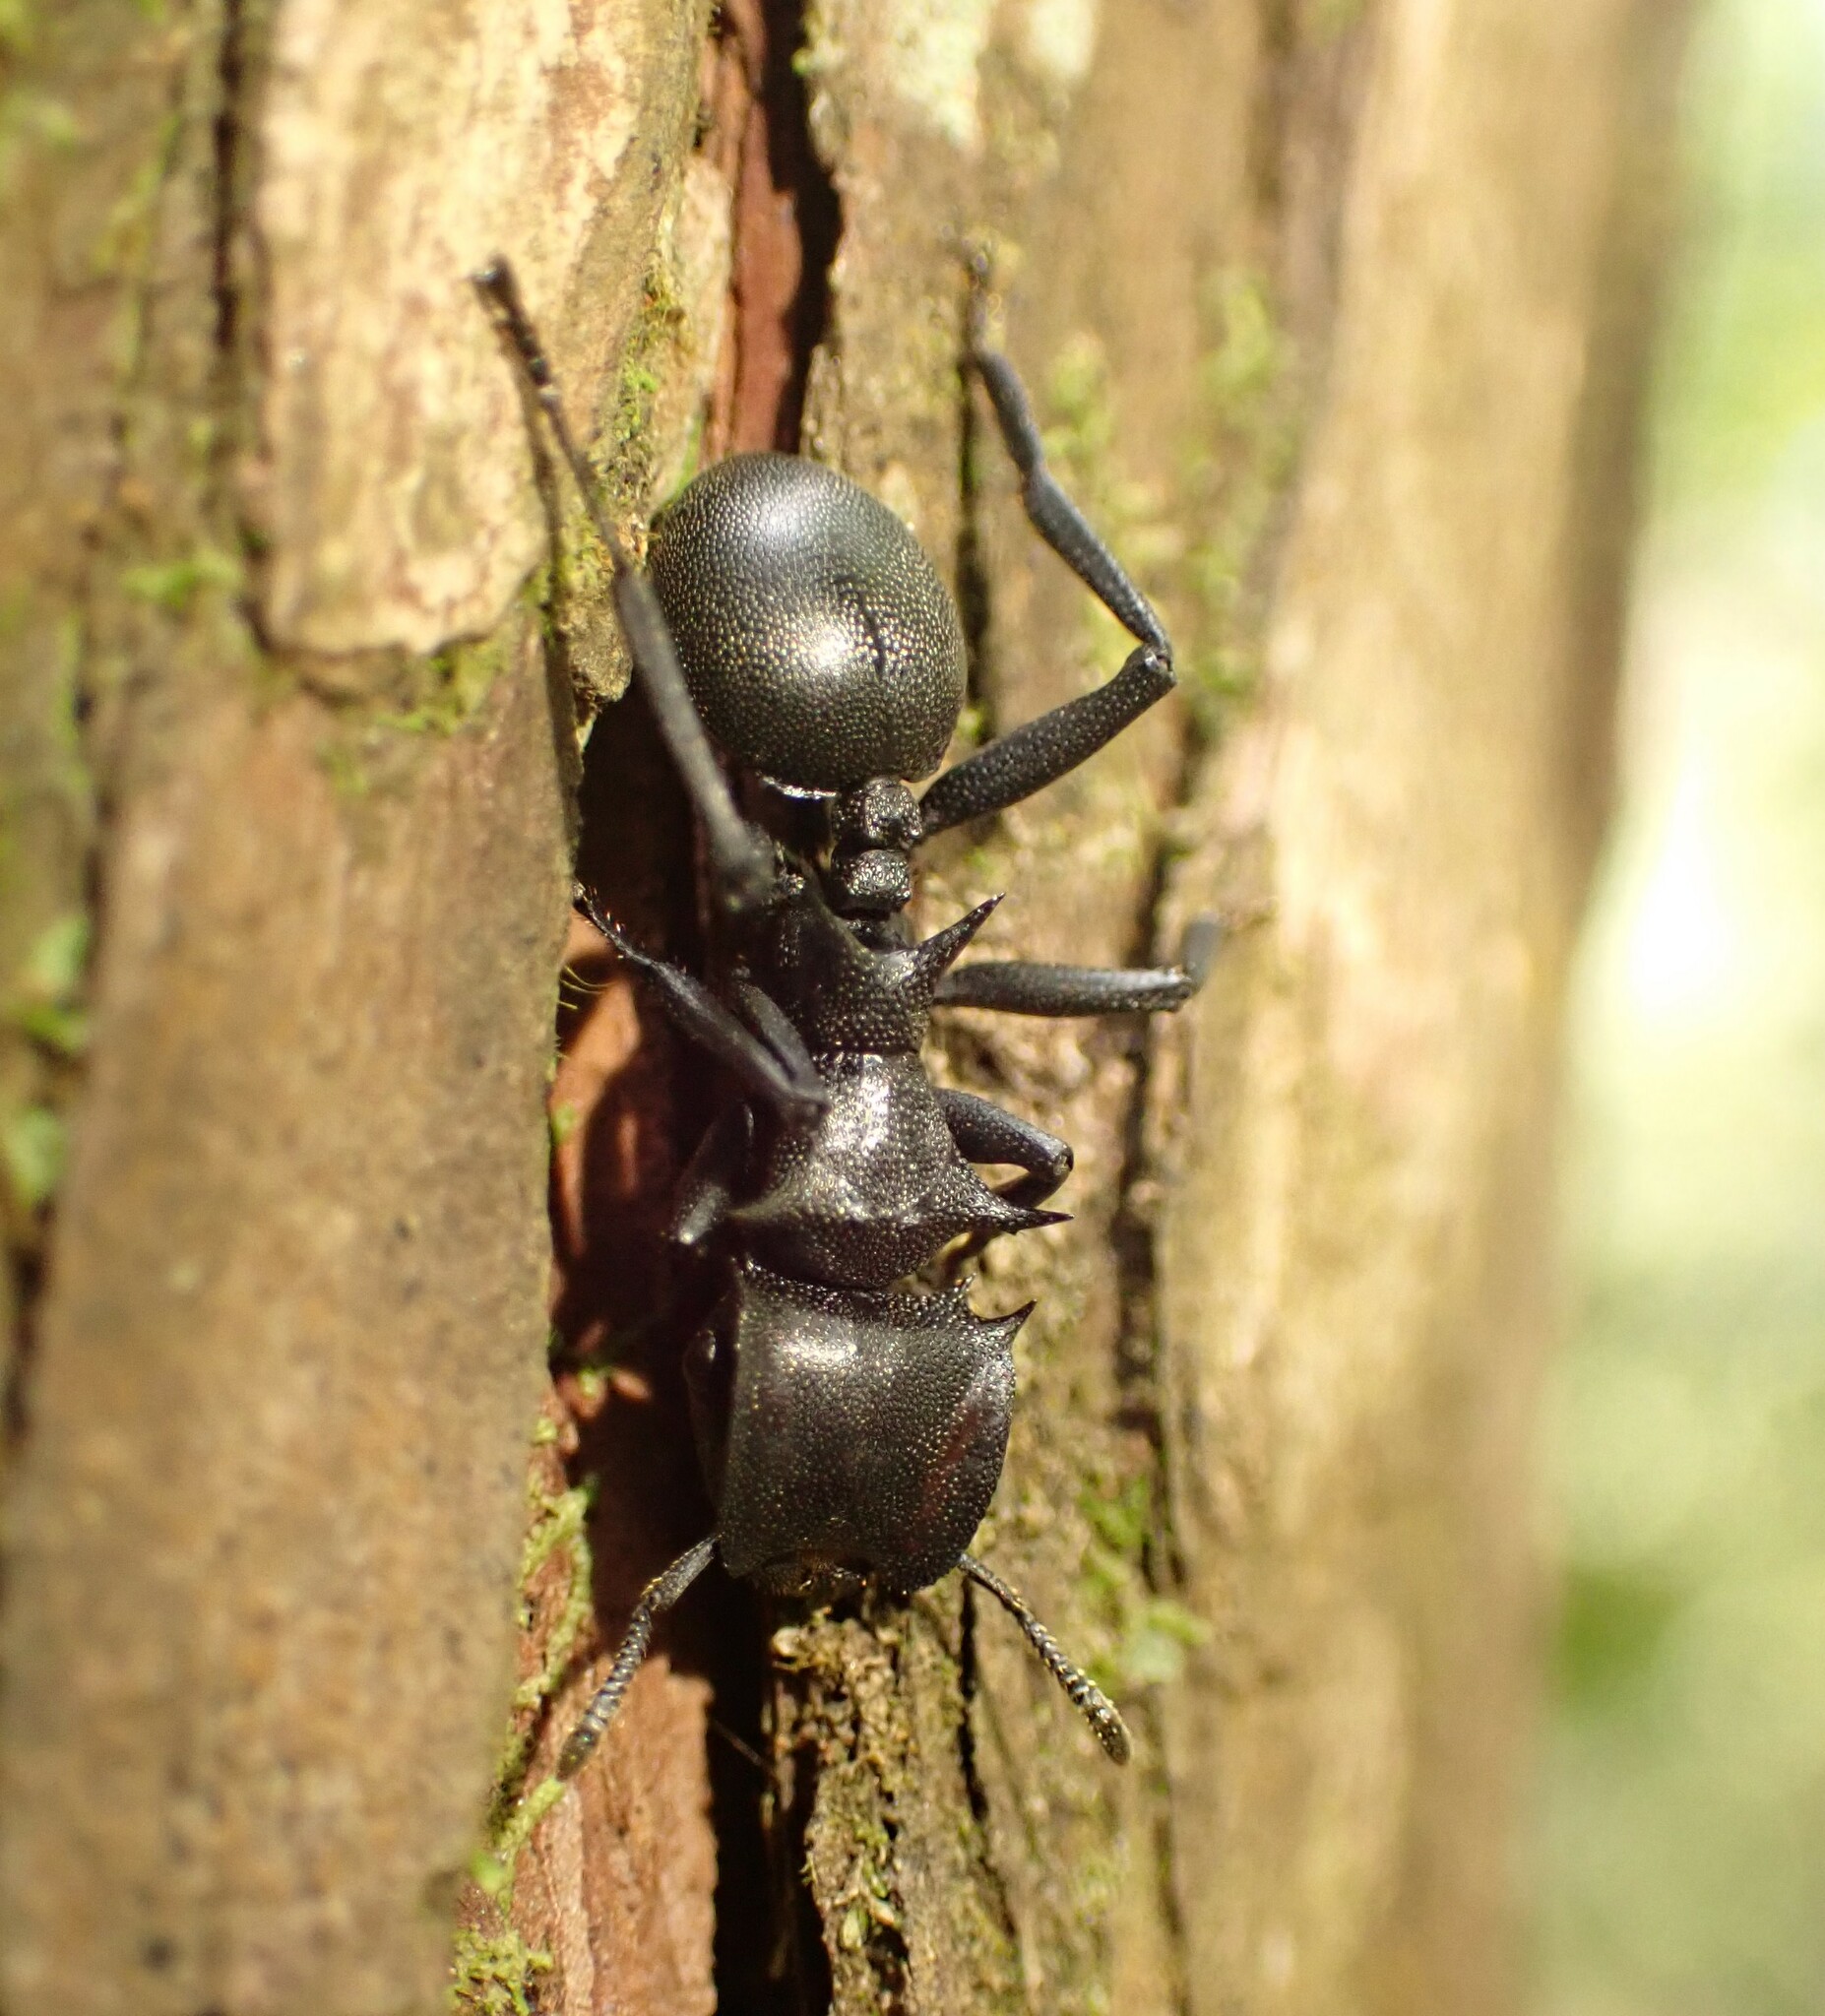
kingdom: Animalia
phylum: Arthropoda
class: Insecta
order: Hymenoptera
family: Formicidae
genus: Cephalotes
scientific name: Cephalotes atratus
